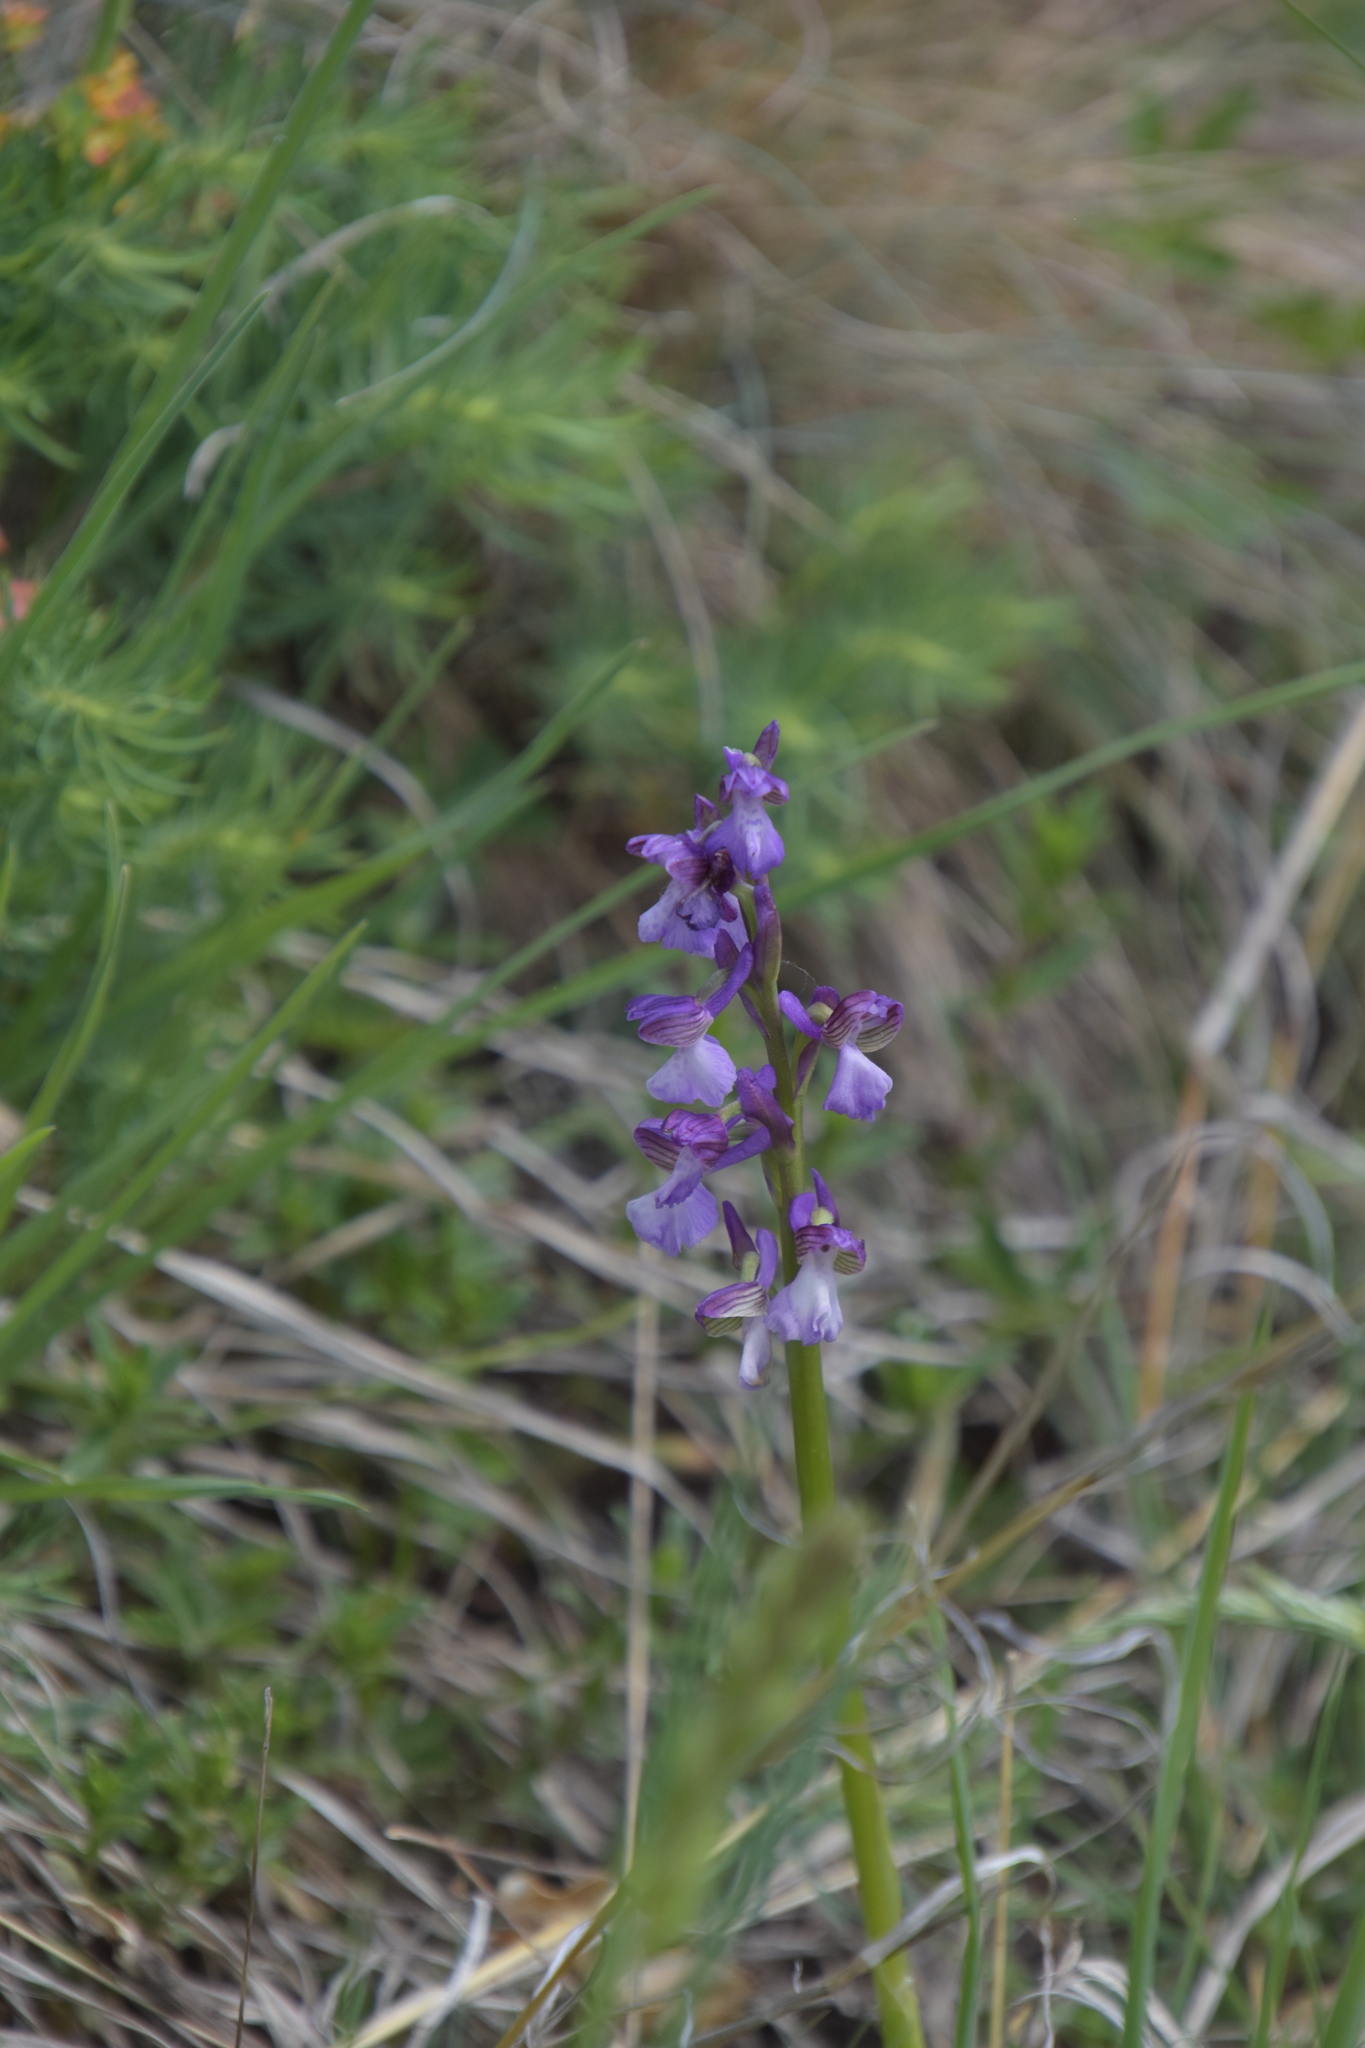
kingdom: Plantae
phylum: Tracheophyta
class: Liliopsida
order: Asparagales
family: Orchidaceae
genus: Anacamptis
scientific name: Anacamptis morio
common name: Green-winged orchid
